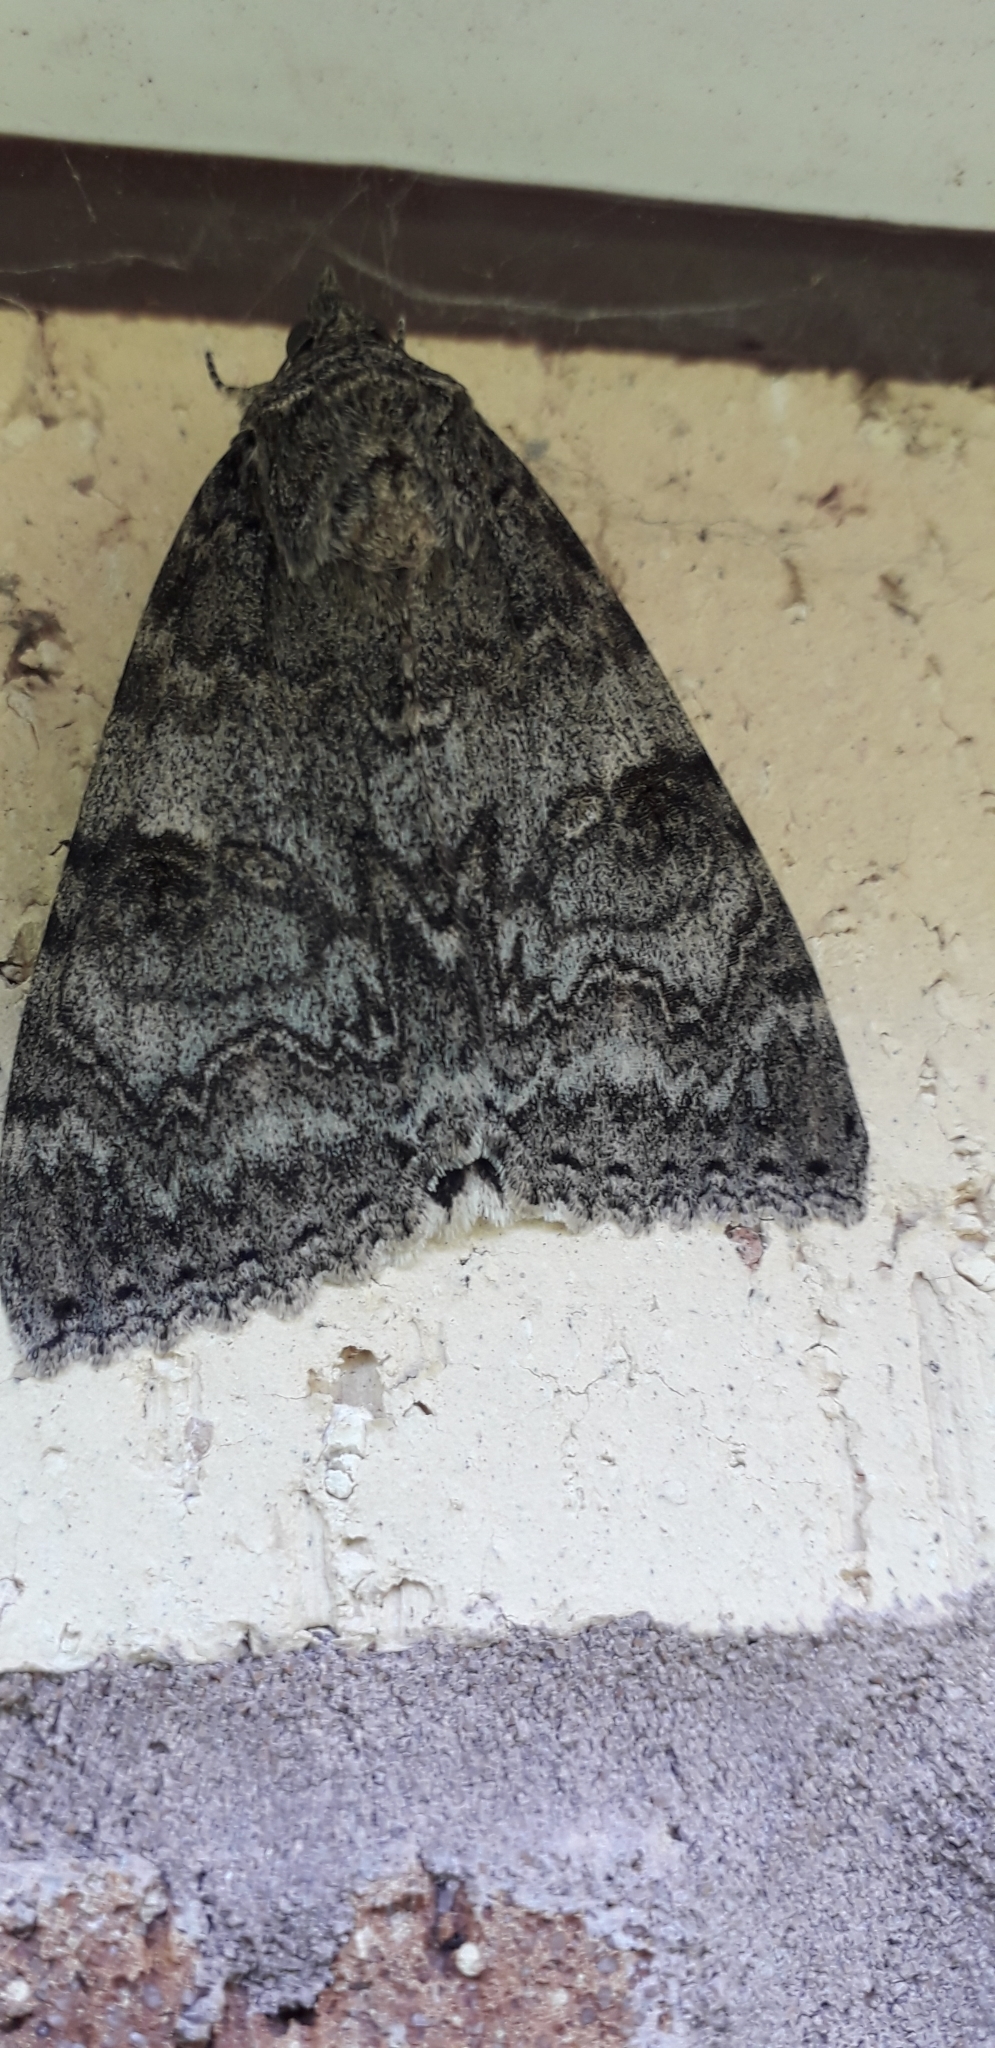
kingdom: Animalia
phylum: Arthropoda
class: Insecta
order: Lepidoptera
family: Erebidae
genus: Catocala
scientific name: Catocala nupta
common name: Red underwing
